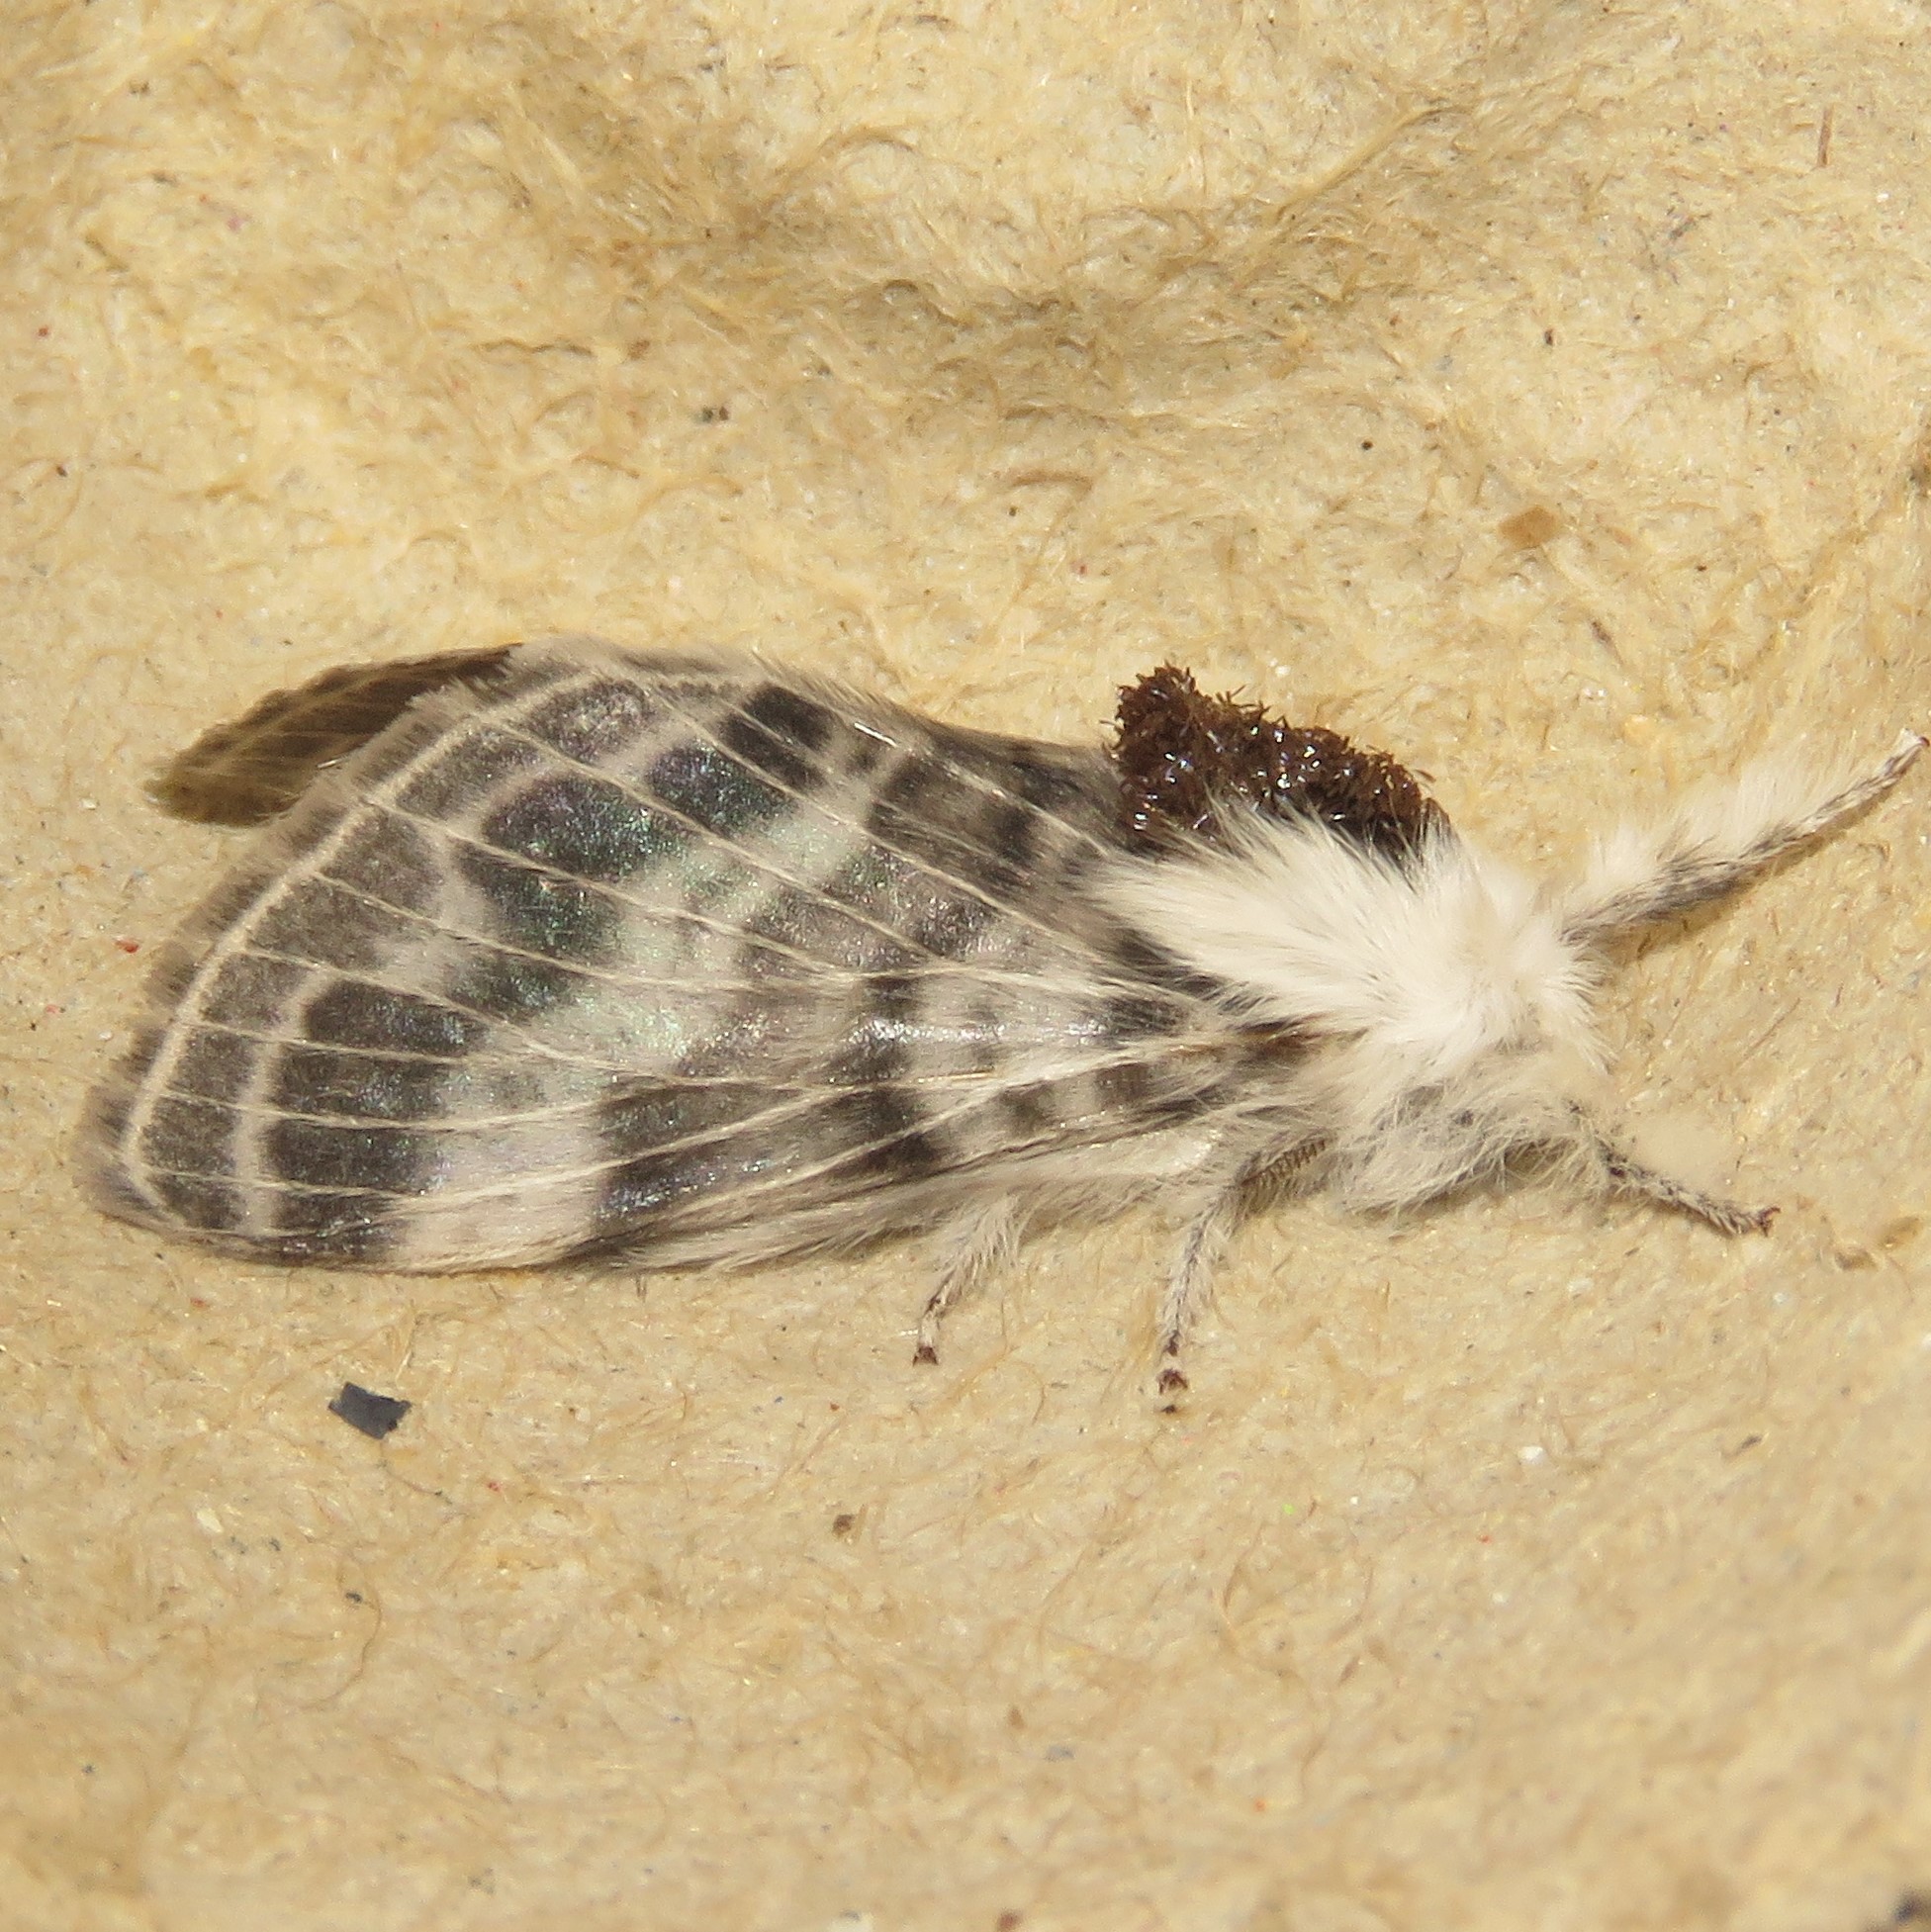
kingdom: Animalia
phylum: Arthropoda
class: Insecta
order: Lepidoptera
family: Lasiocampidae
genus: Tolype
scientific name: Tolype velleda
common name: Large tolype moth
